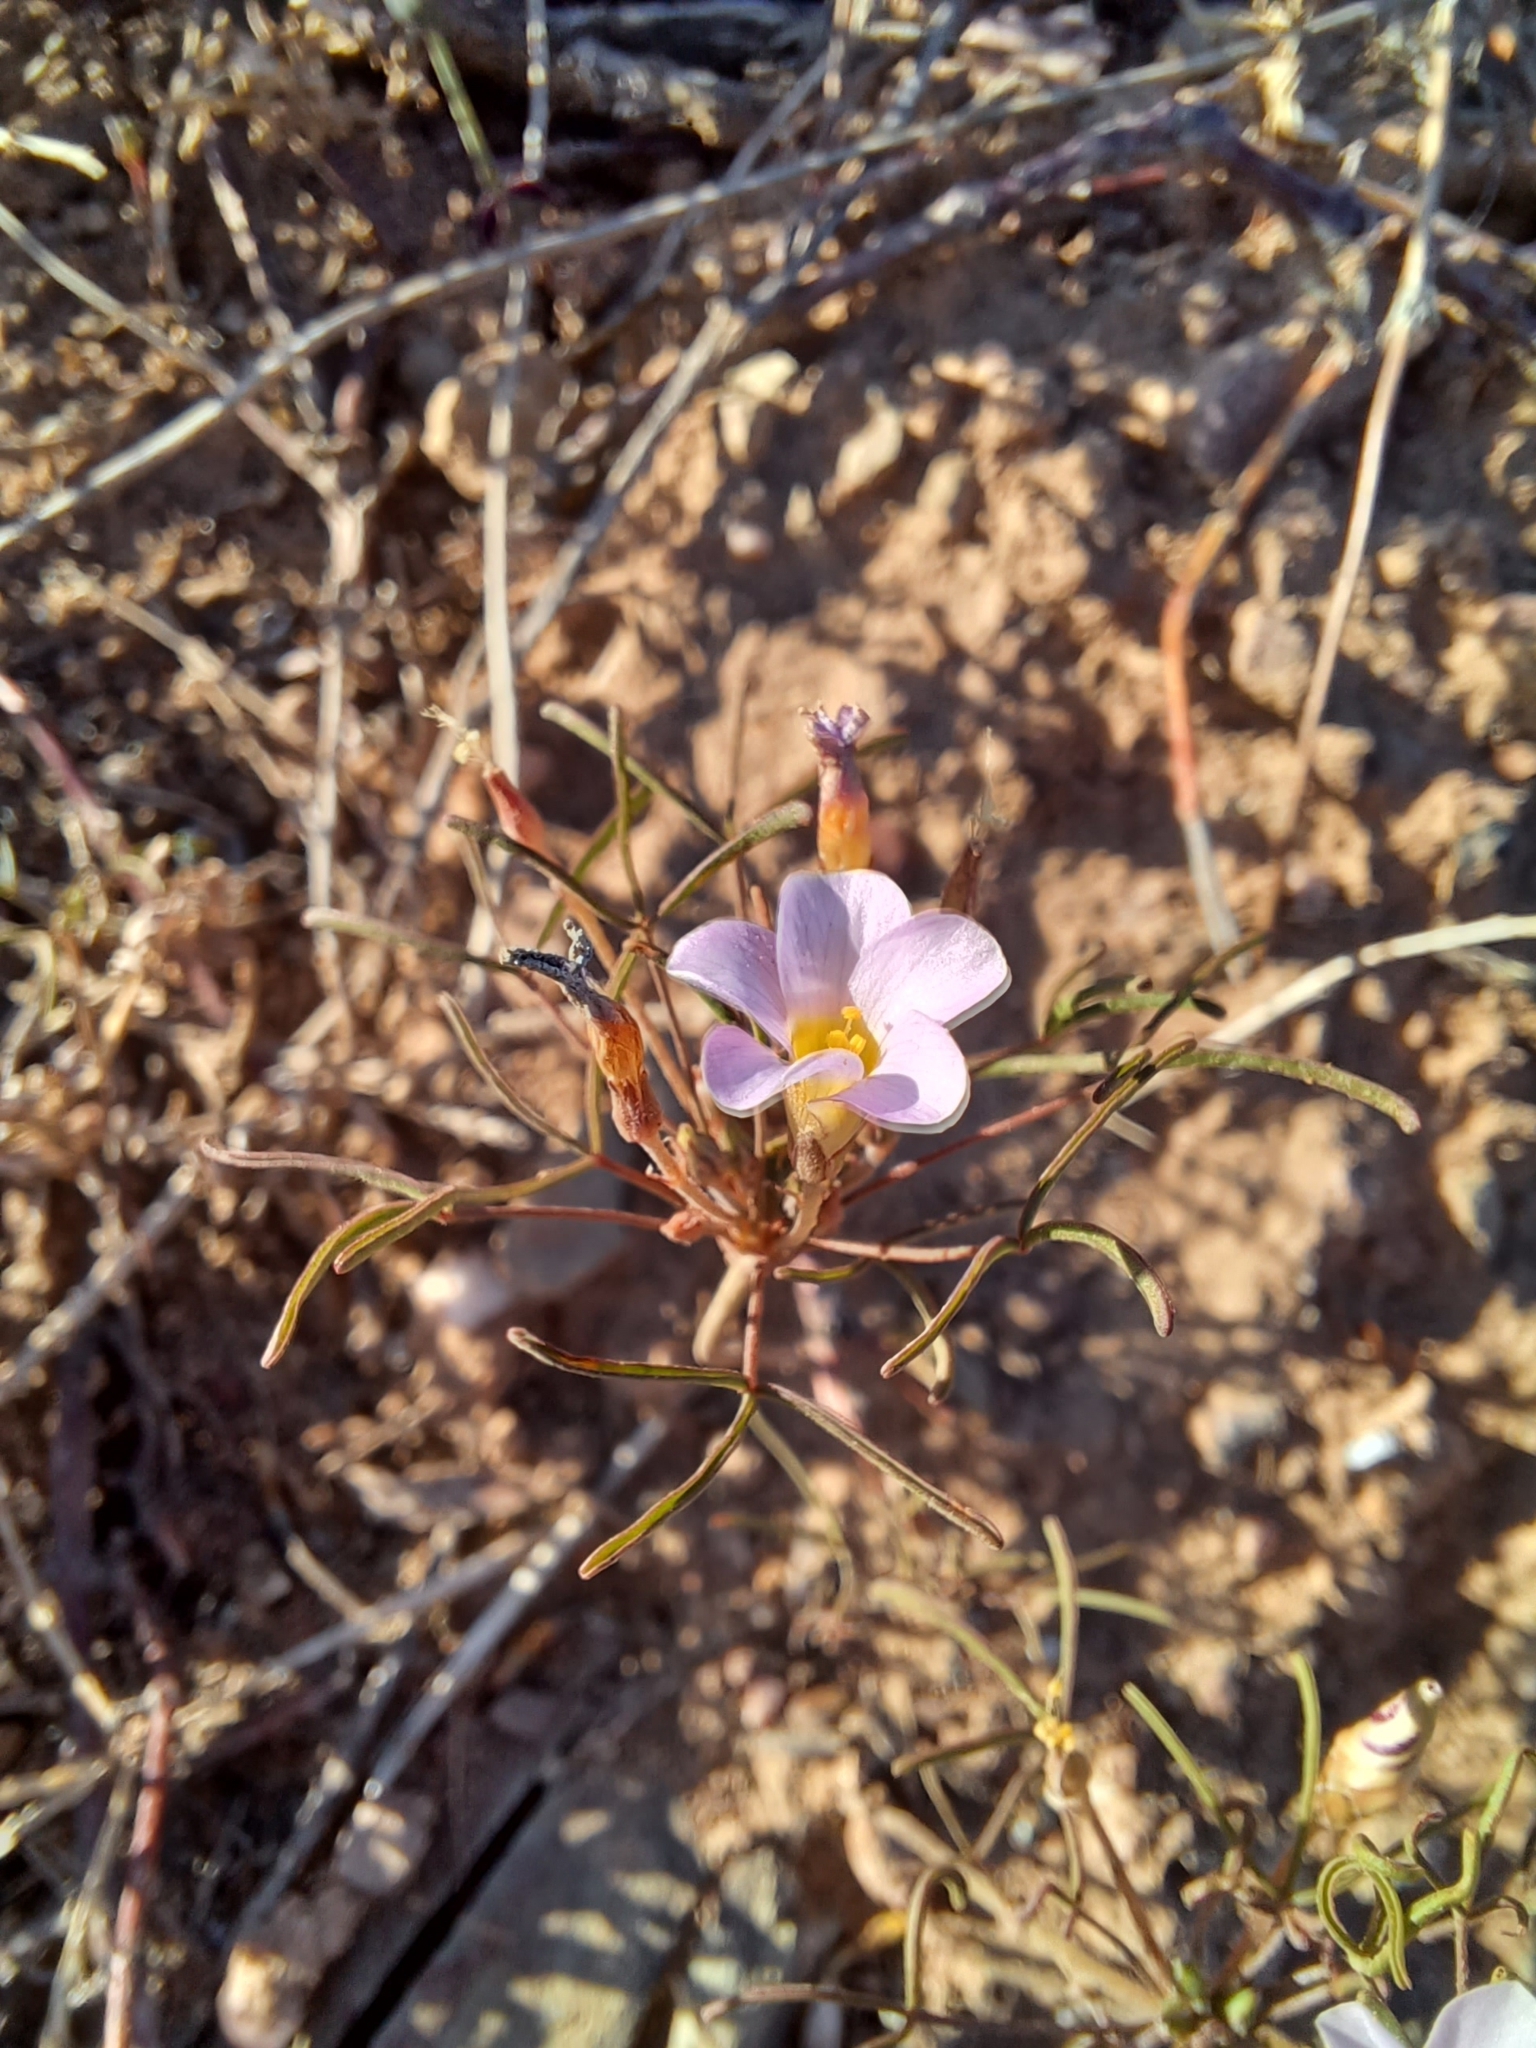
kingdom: Plantae
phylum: Tracheophyta
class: Magnoliopsida
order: Oxalidales
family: Oxalidaceae
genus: Oxalis
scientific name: Oxalis burkei
